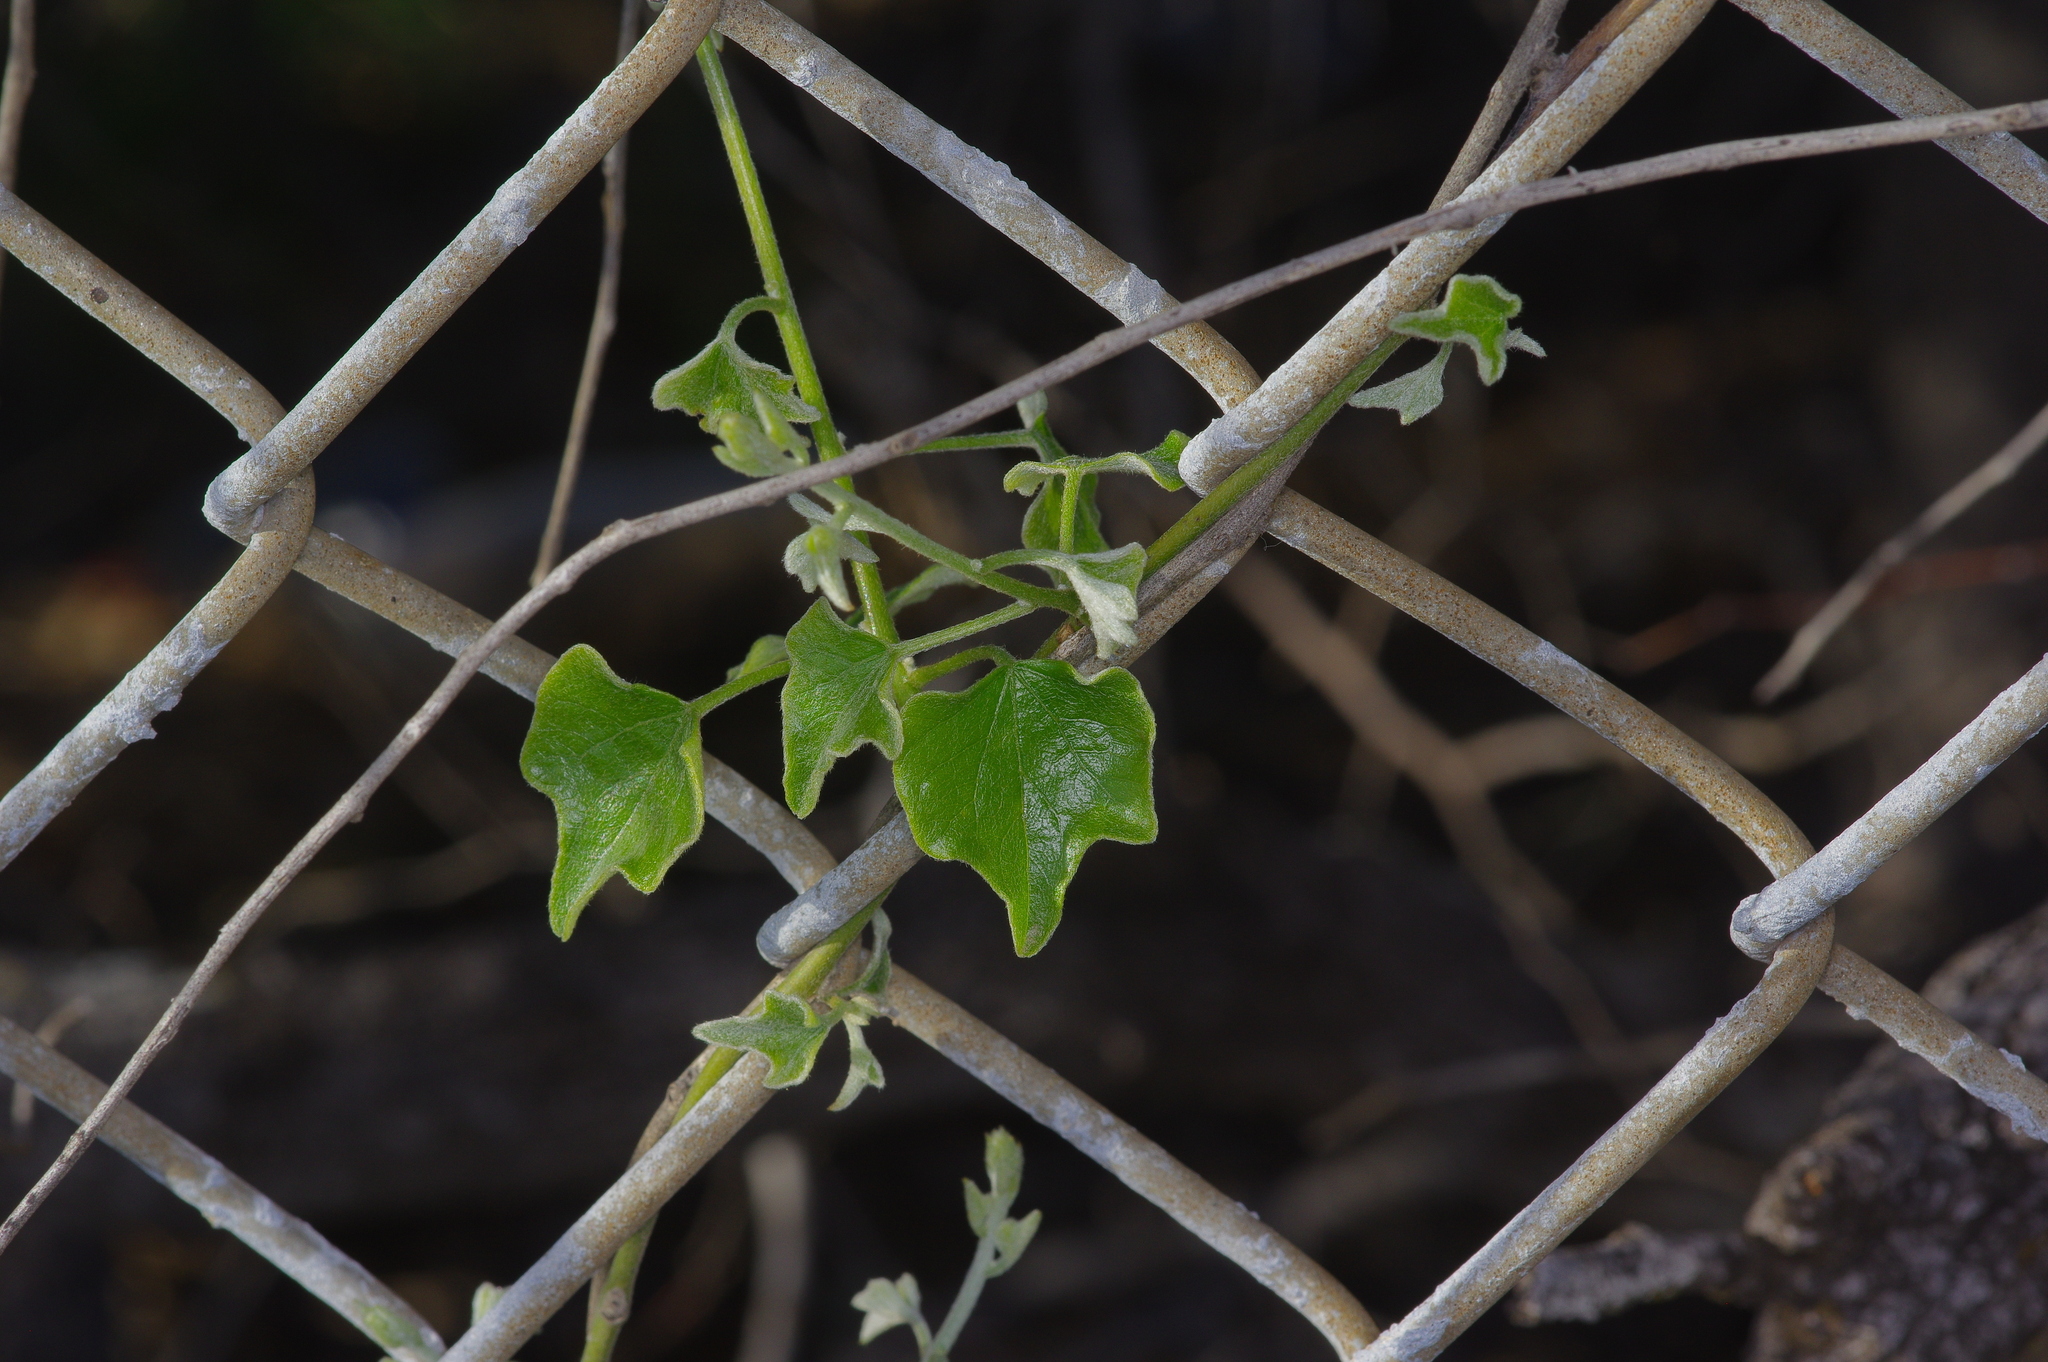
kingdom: Plantae
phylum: Tracheophyta
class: Magnoliopsida
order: Ranunculales
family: Menispermaceae
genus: Cocculus
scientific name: Cocculus carolinus
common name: Carolina moonseed
